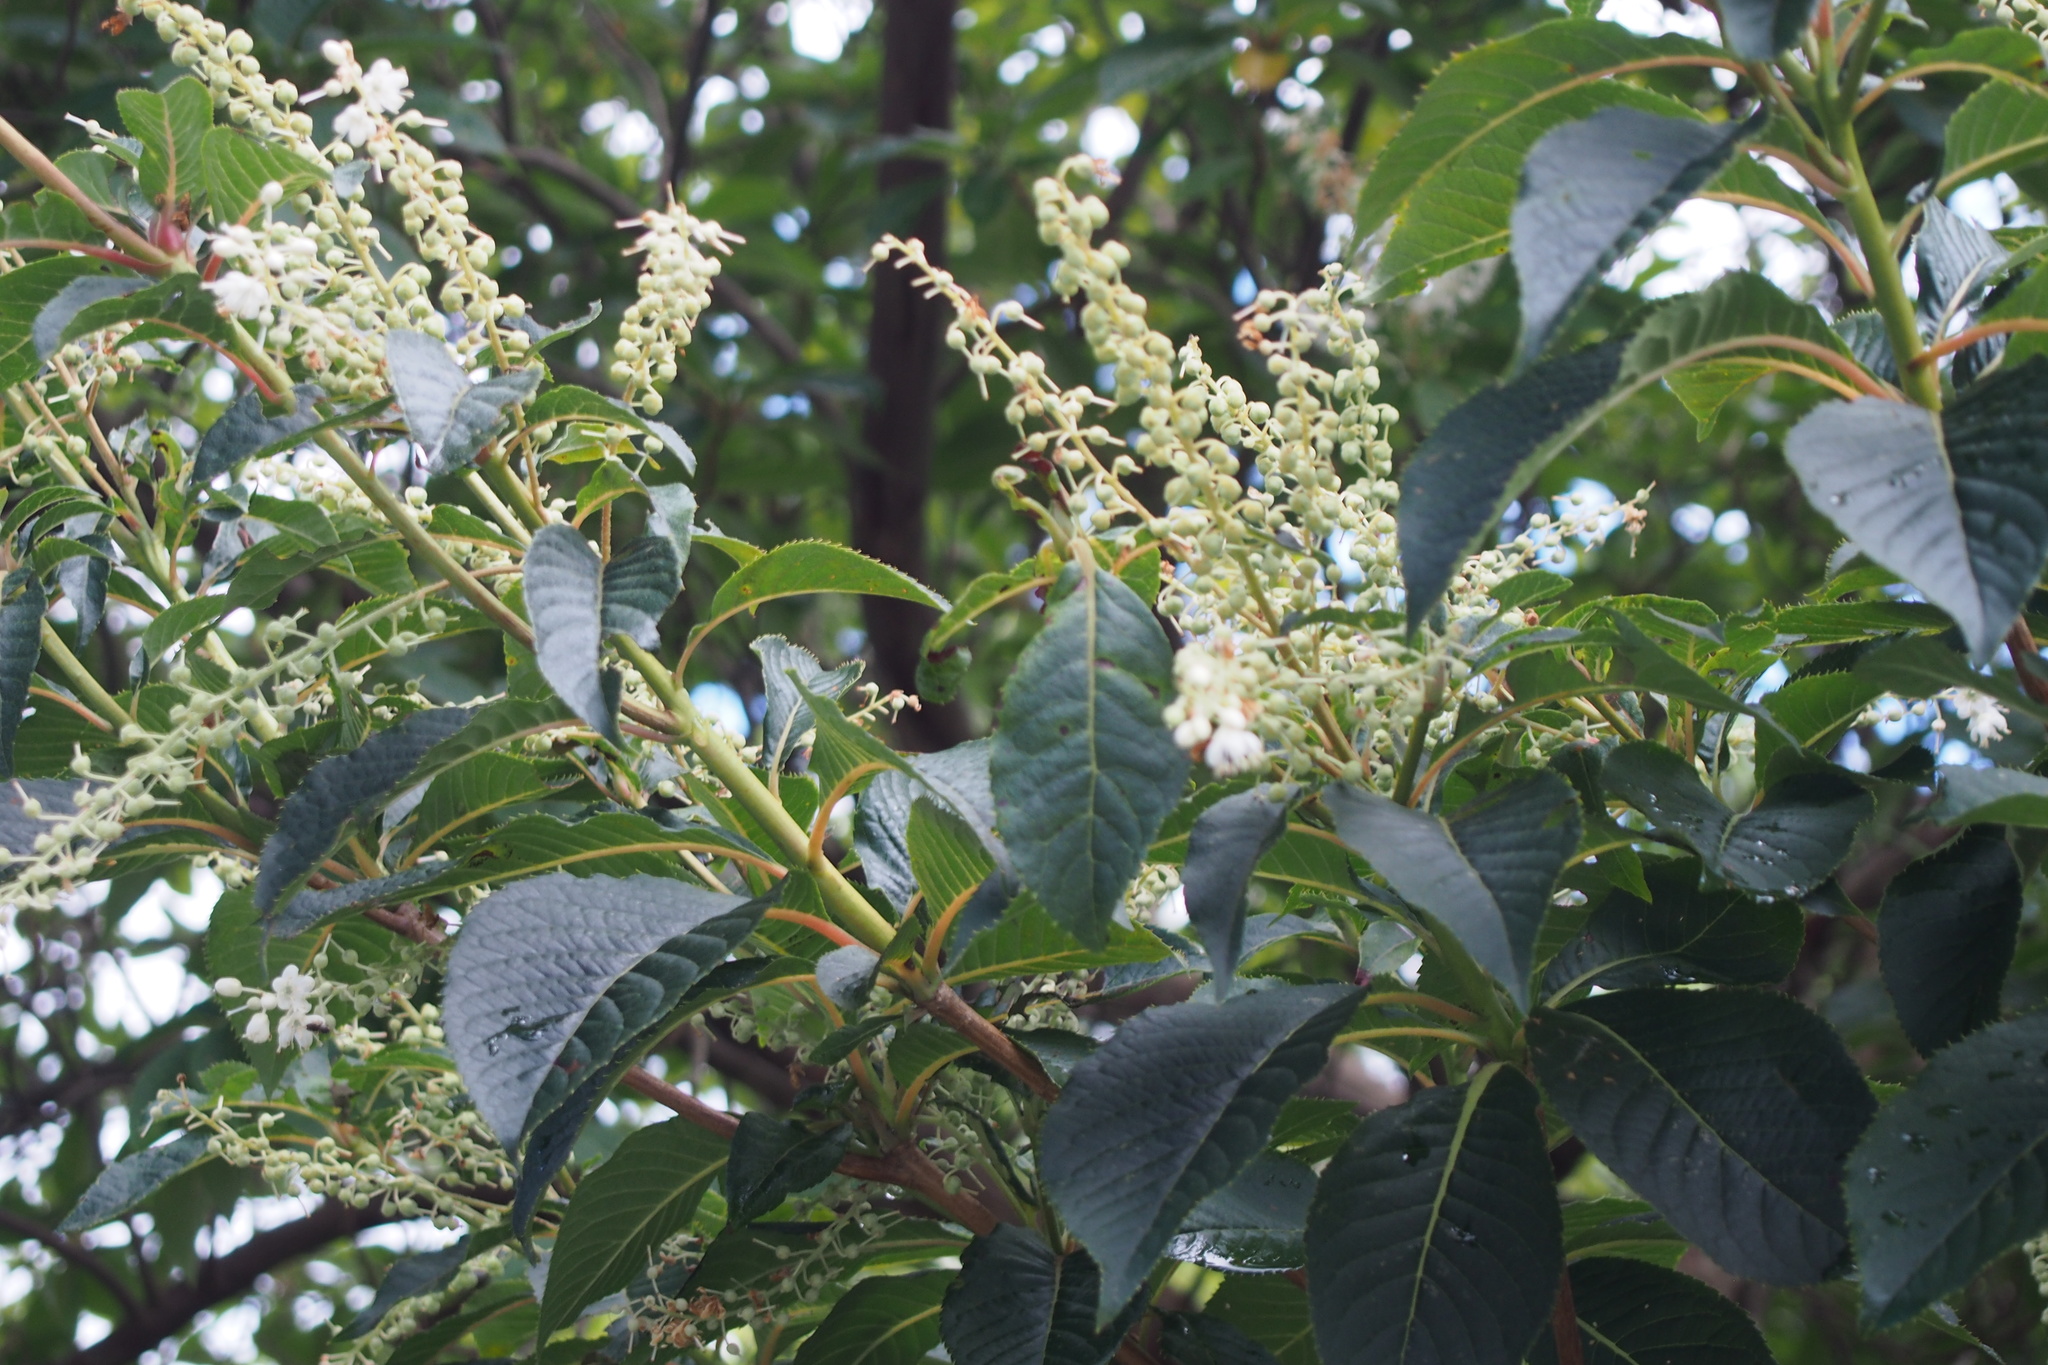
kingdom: Plantae
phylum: Tracheophyta
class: Magnoliopsida
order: Ericales
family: Clethraceae
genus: Clethra
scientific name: Clethra barbinervis
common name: Japanese clethra
